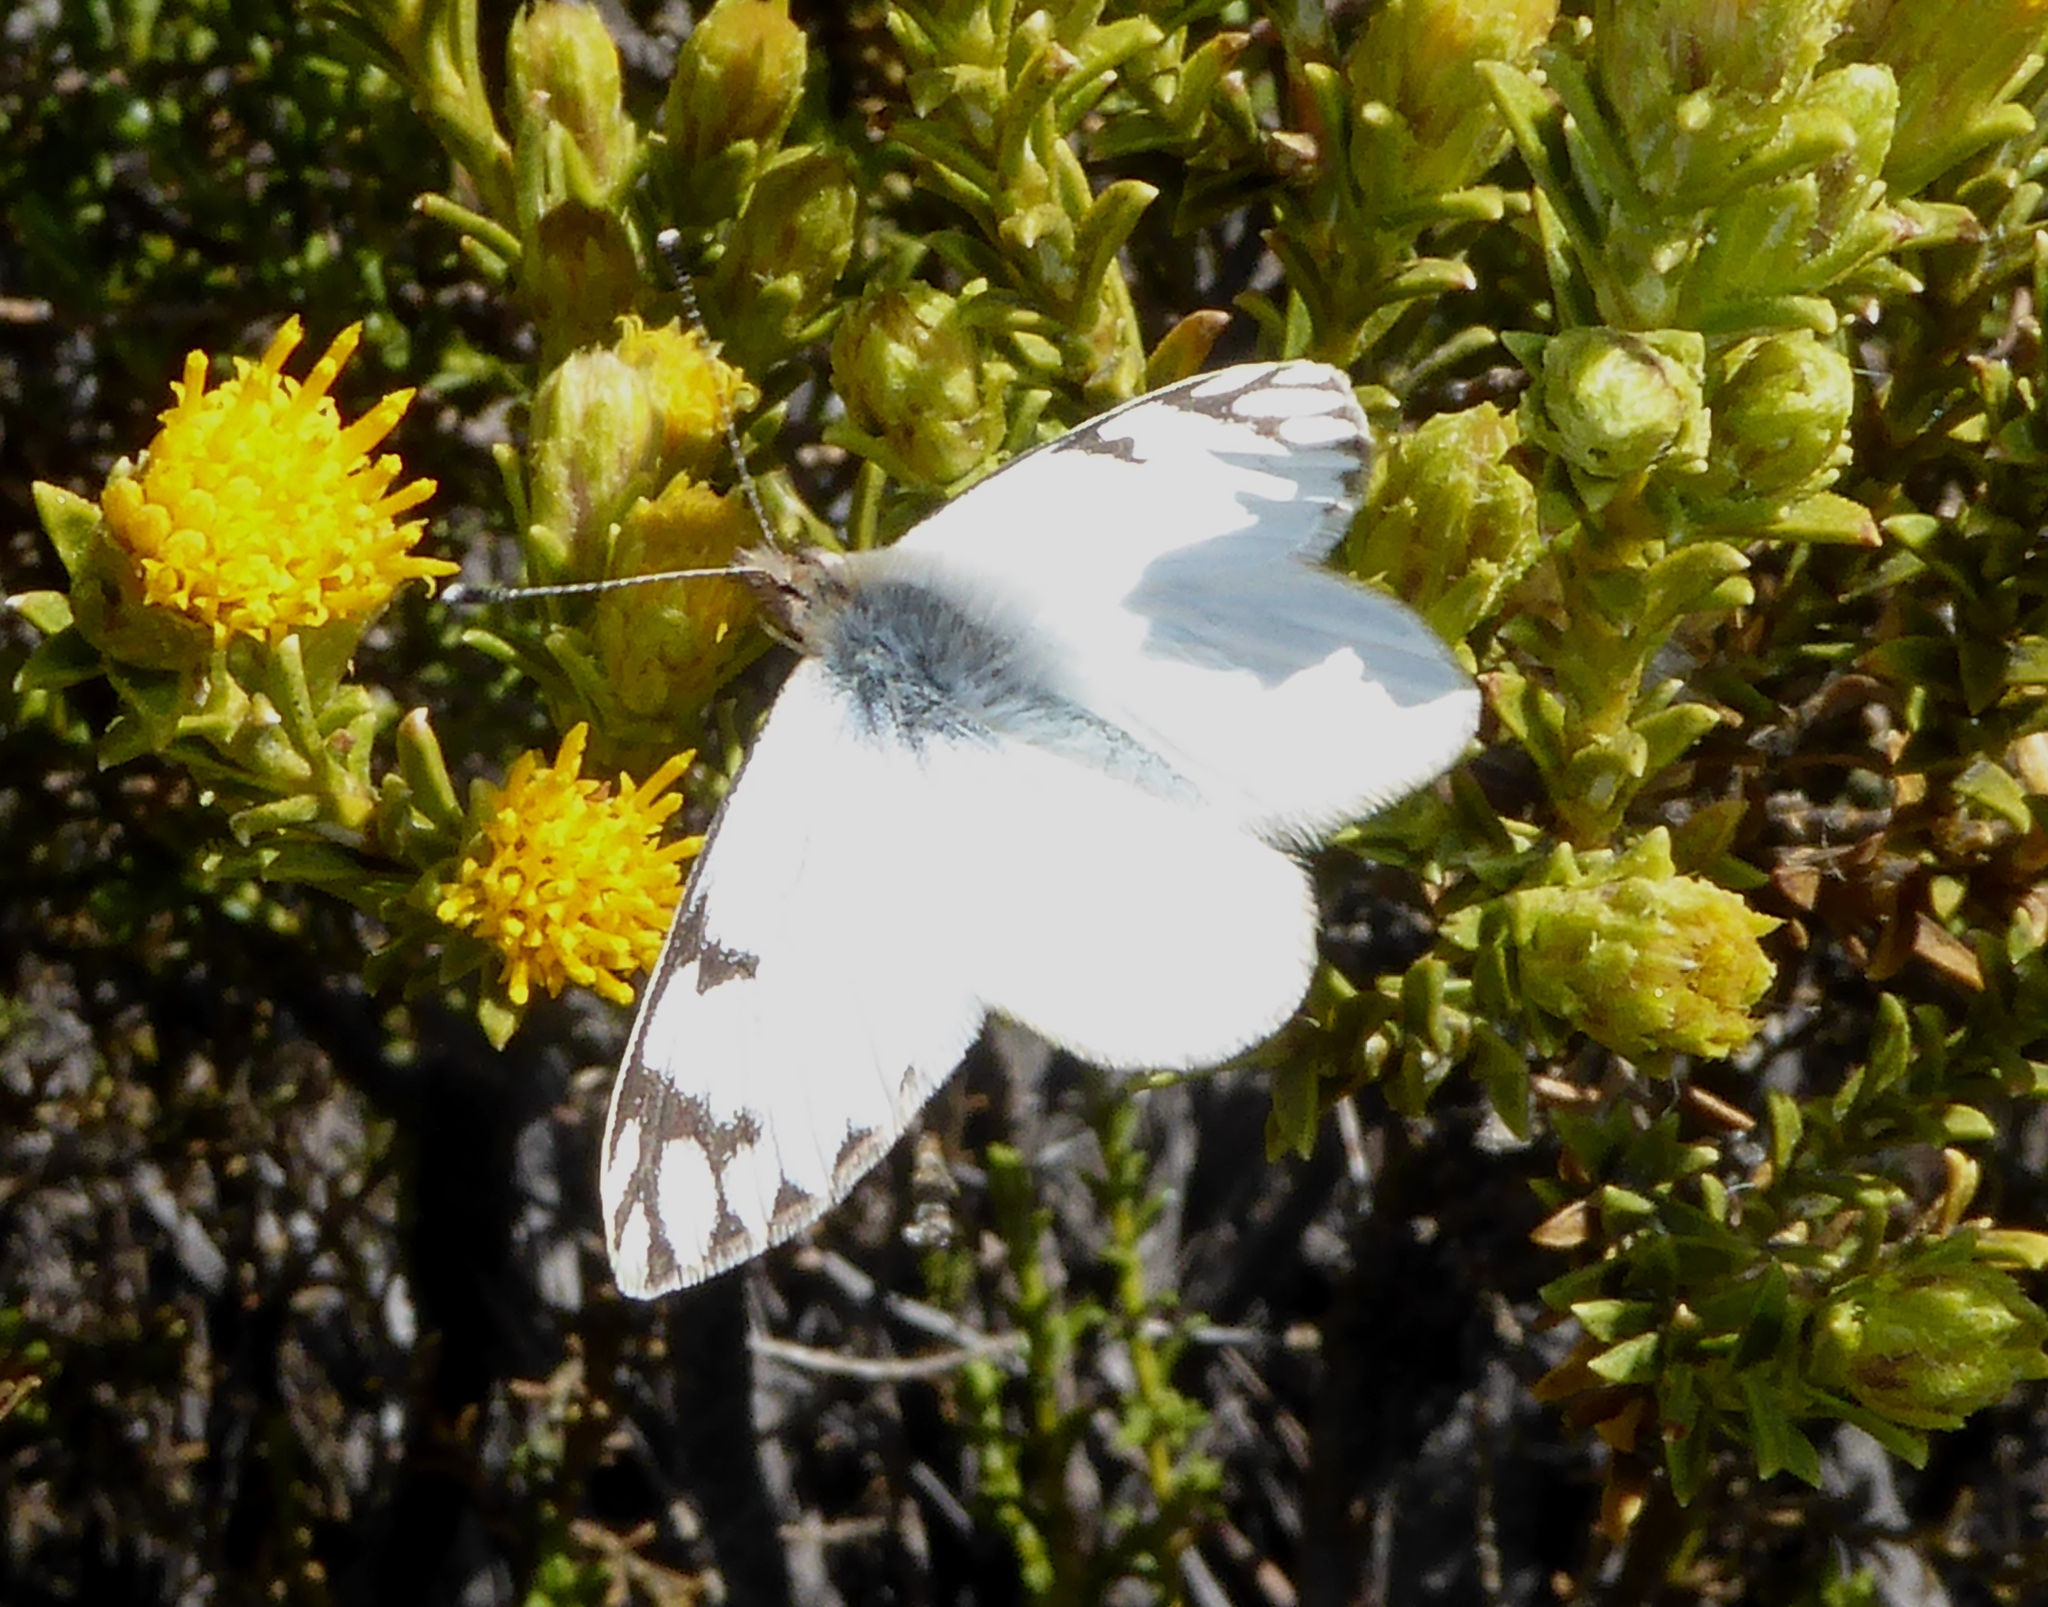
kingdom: Animalia
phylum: Arthropoda
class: Insecta
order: Lepidoptera
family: Pieridae
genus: Phulia
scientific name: Phulia nymphula
